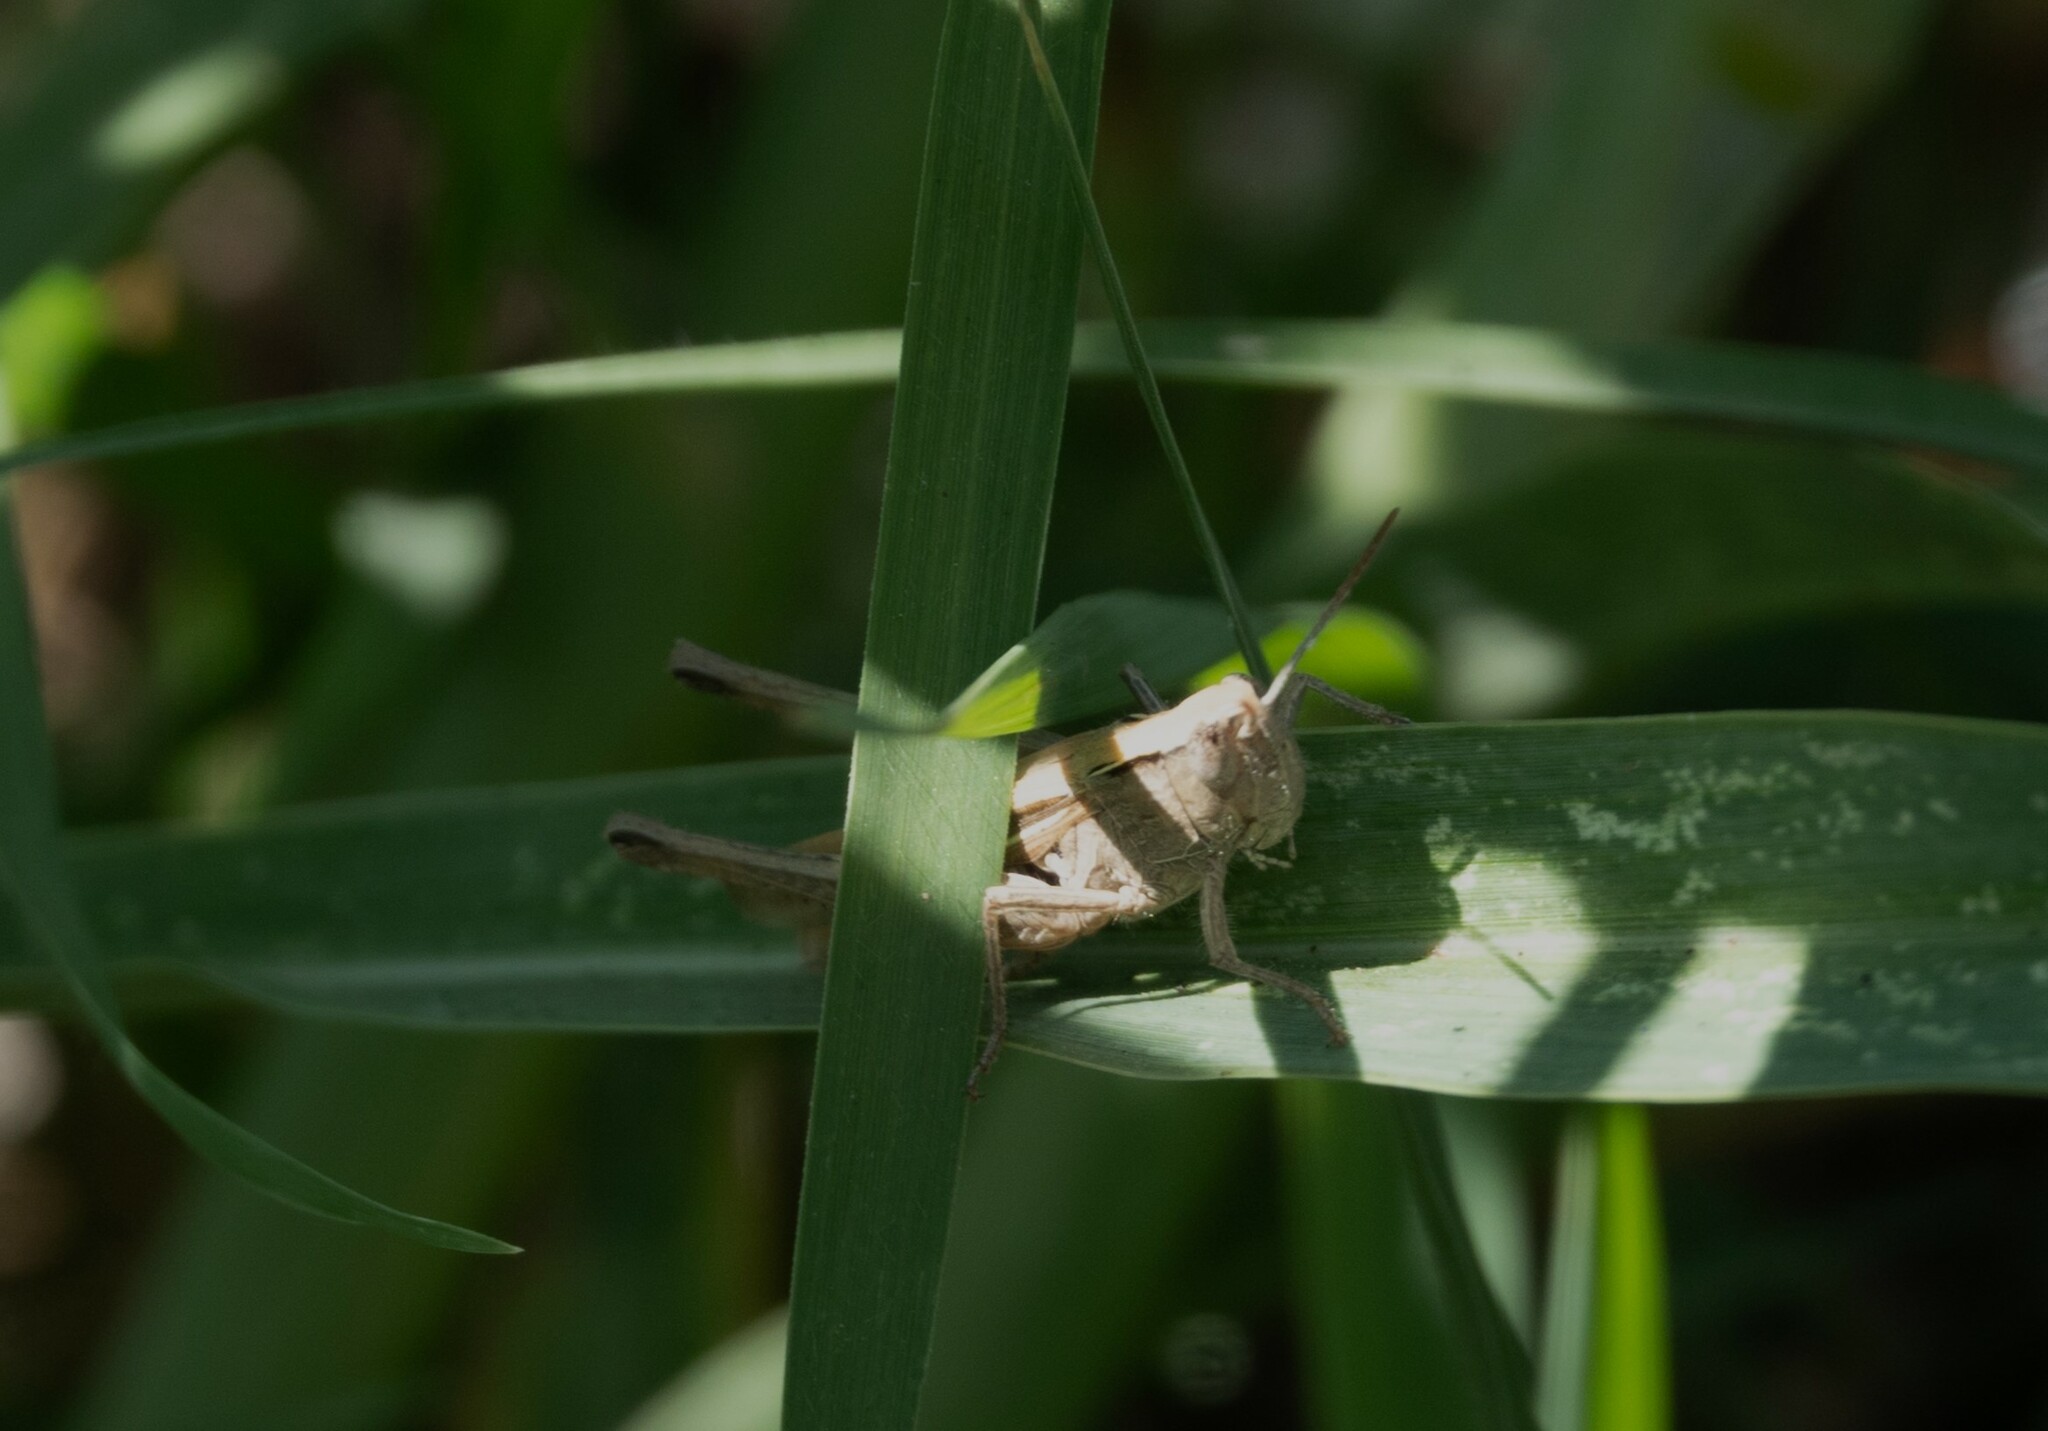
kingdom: Animalia
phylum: Arthropoda
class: Insecta
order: Orthoptera
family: Acrididae
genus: Chorthippus
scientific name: Chorthippus loratus
